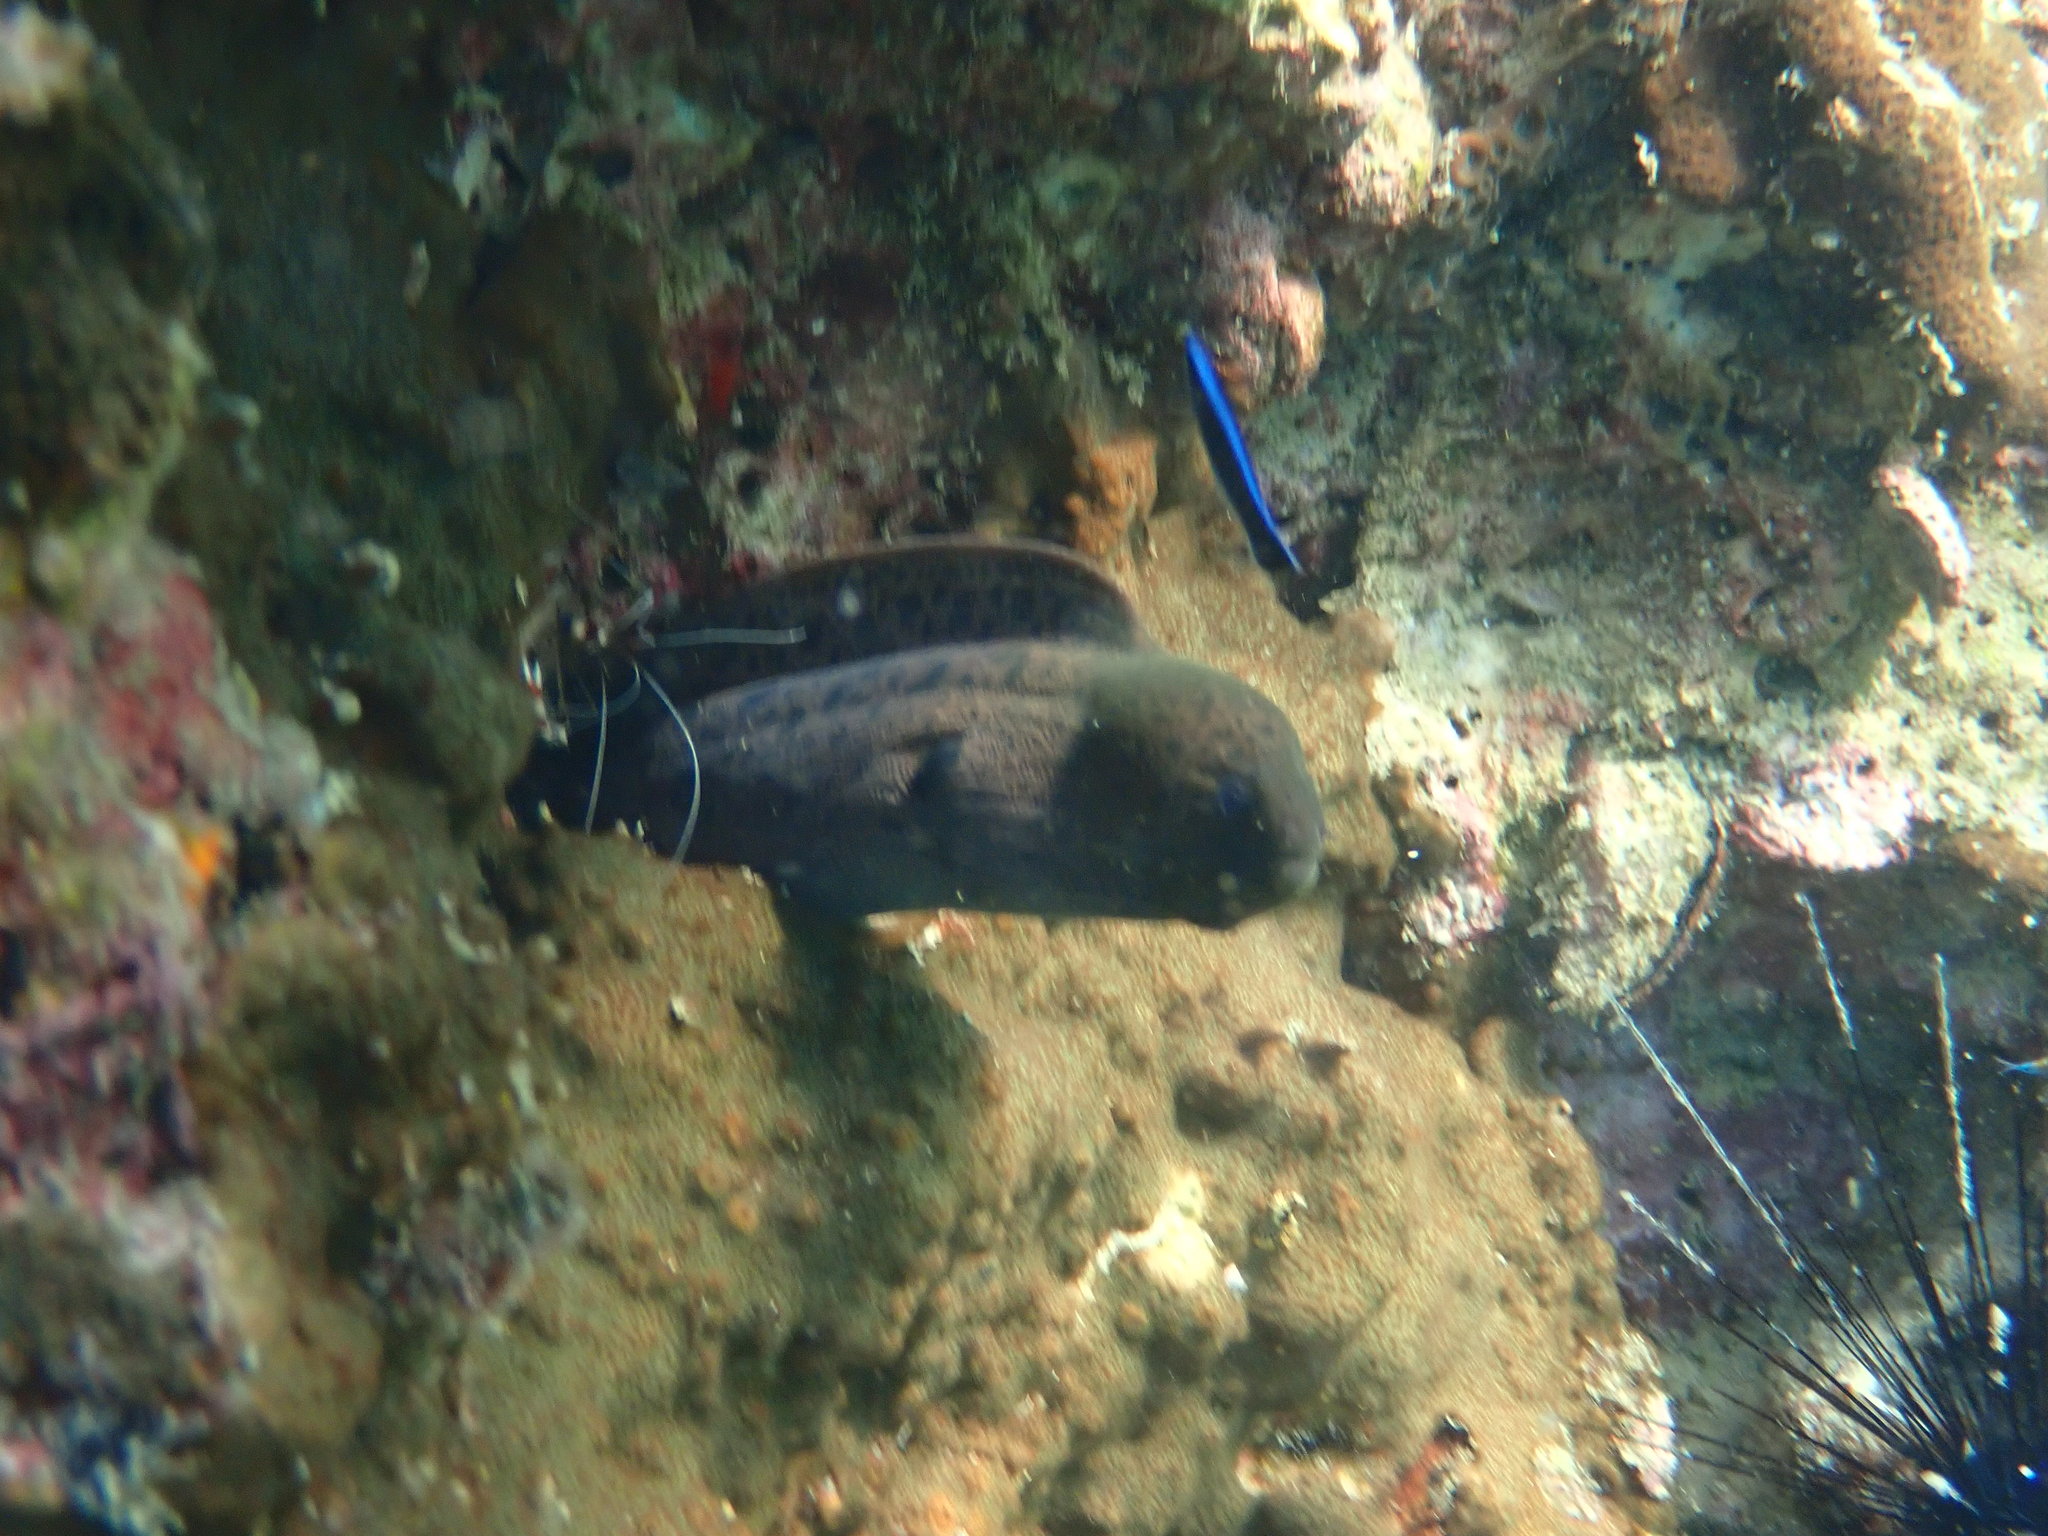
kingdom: Animalia
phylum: Chordata
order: Anguilliformes
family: Muraenidae
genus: Gymnothorax
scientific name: Gymnothorax javanicus
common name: Giant moray
